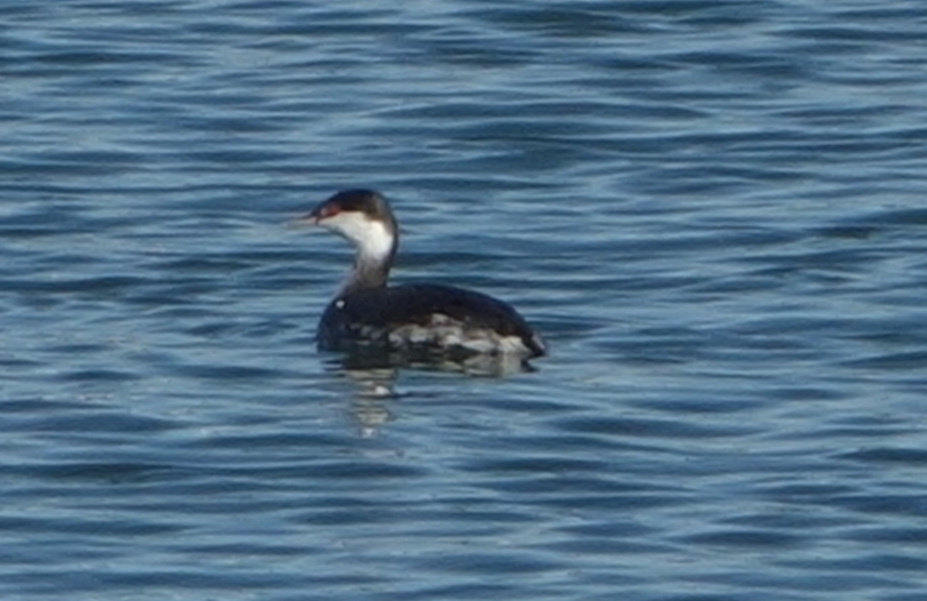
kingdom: Animalia
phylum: Chordata
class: Aves
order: Podicipediformes
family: Podicipedidae
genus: Podiceps
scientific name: Podiceps auritus
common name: Horned grebe
